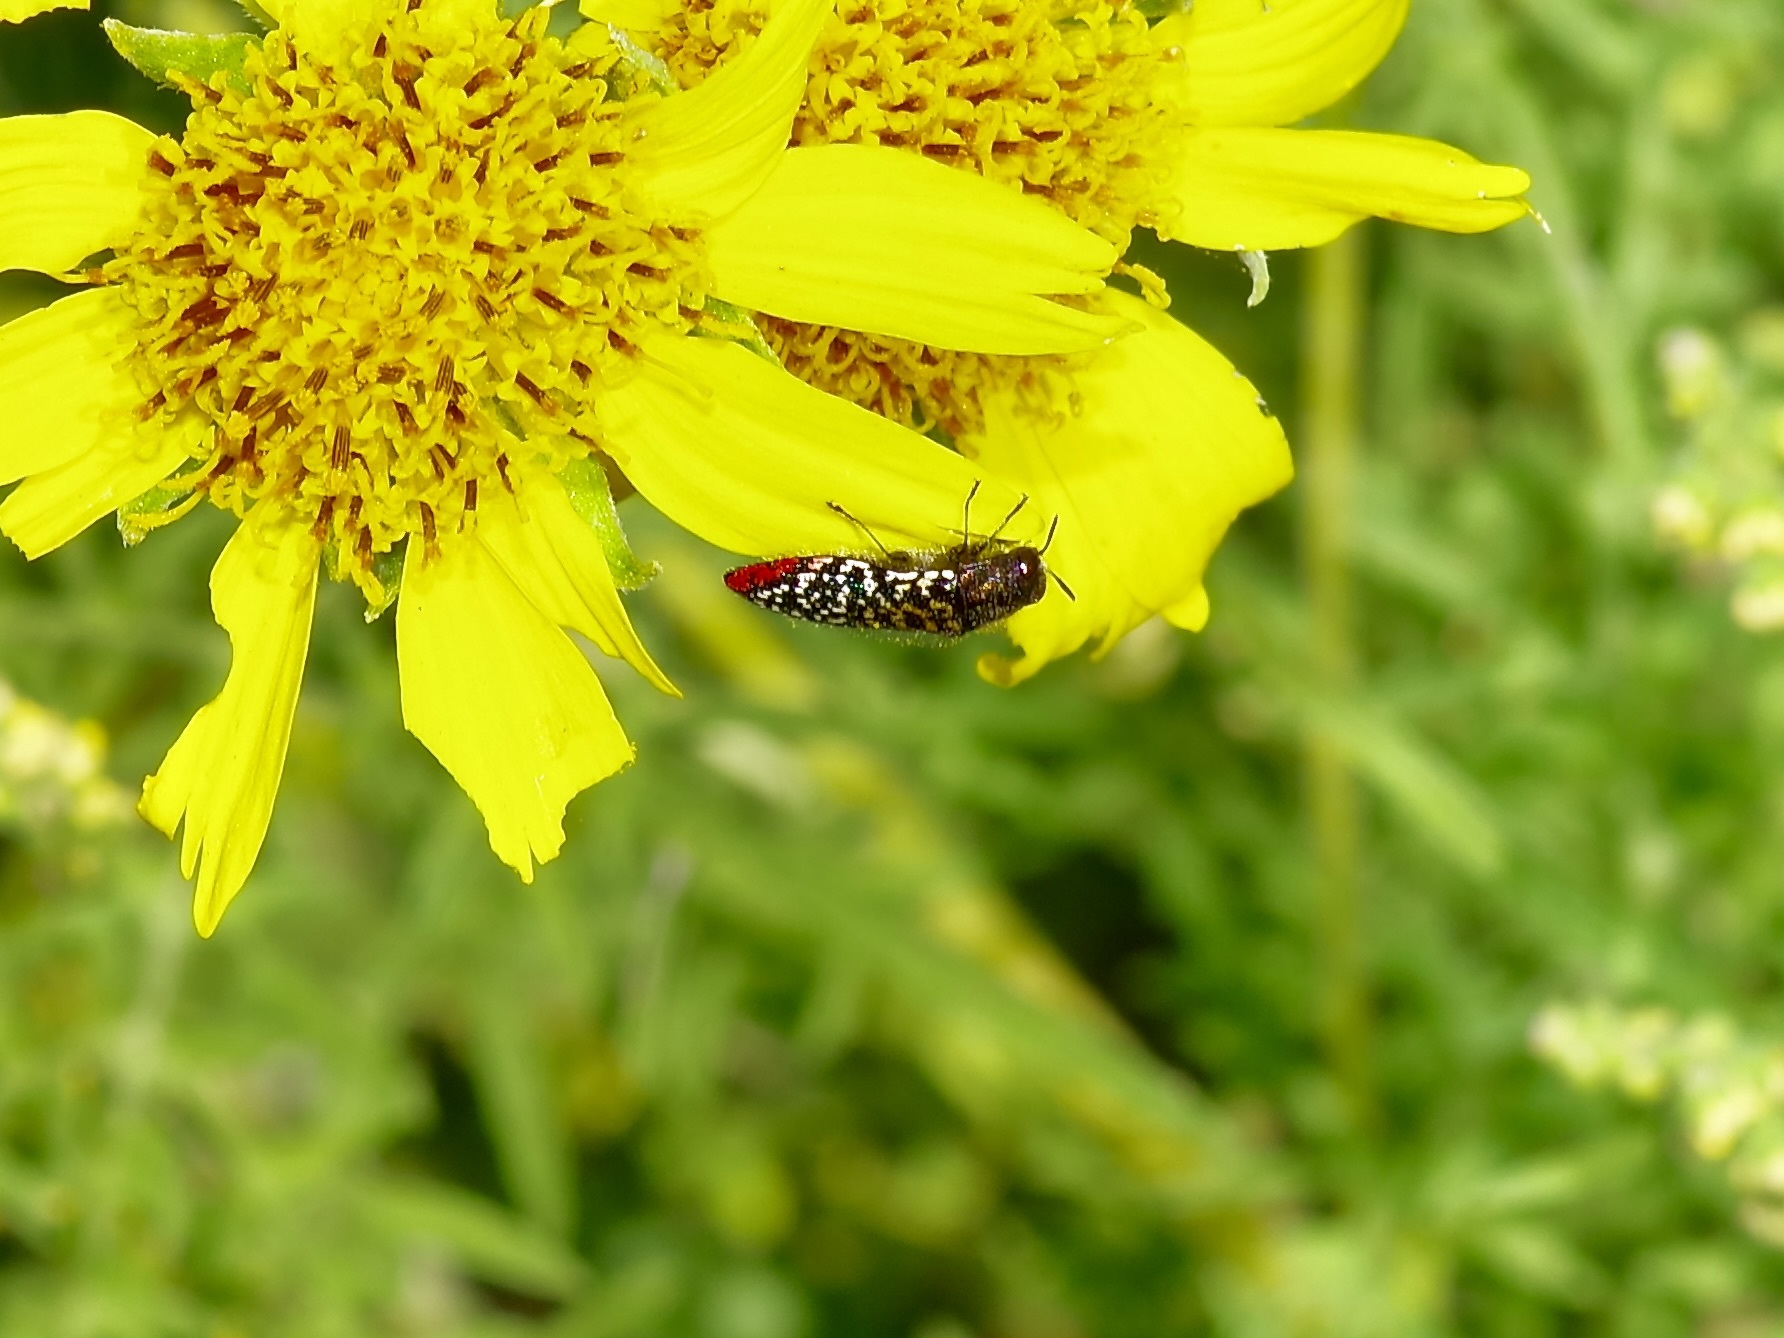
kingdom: Animalia
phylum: Arthropoda
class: Insecta
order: Coleoptera
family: Buprestidae
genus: Acmaeodera
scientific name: Acmaeodera haemorrhoa
